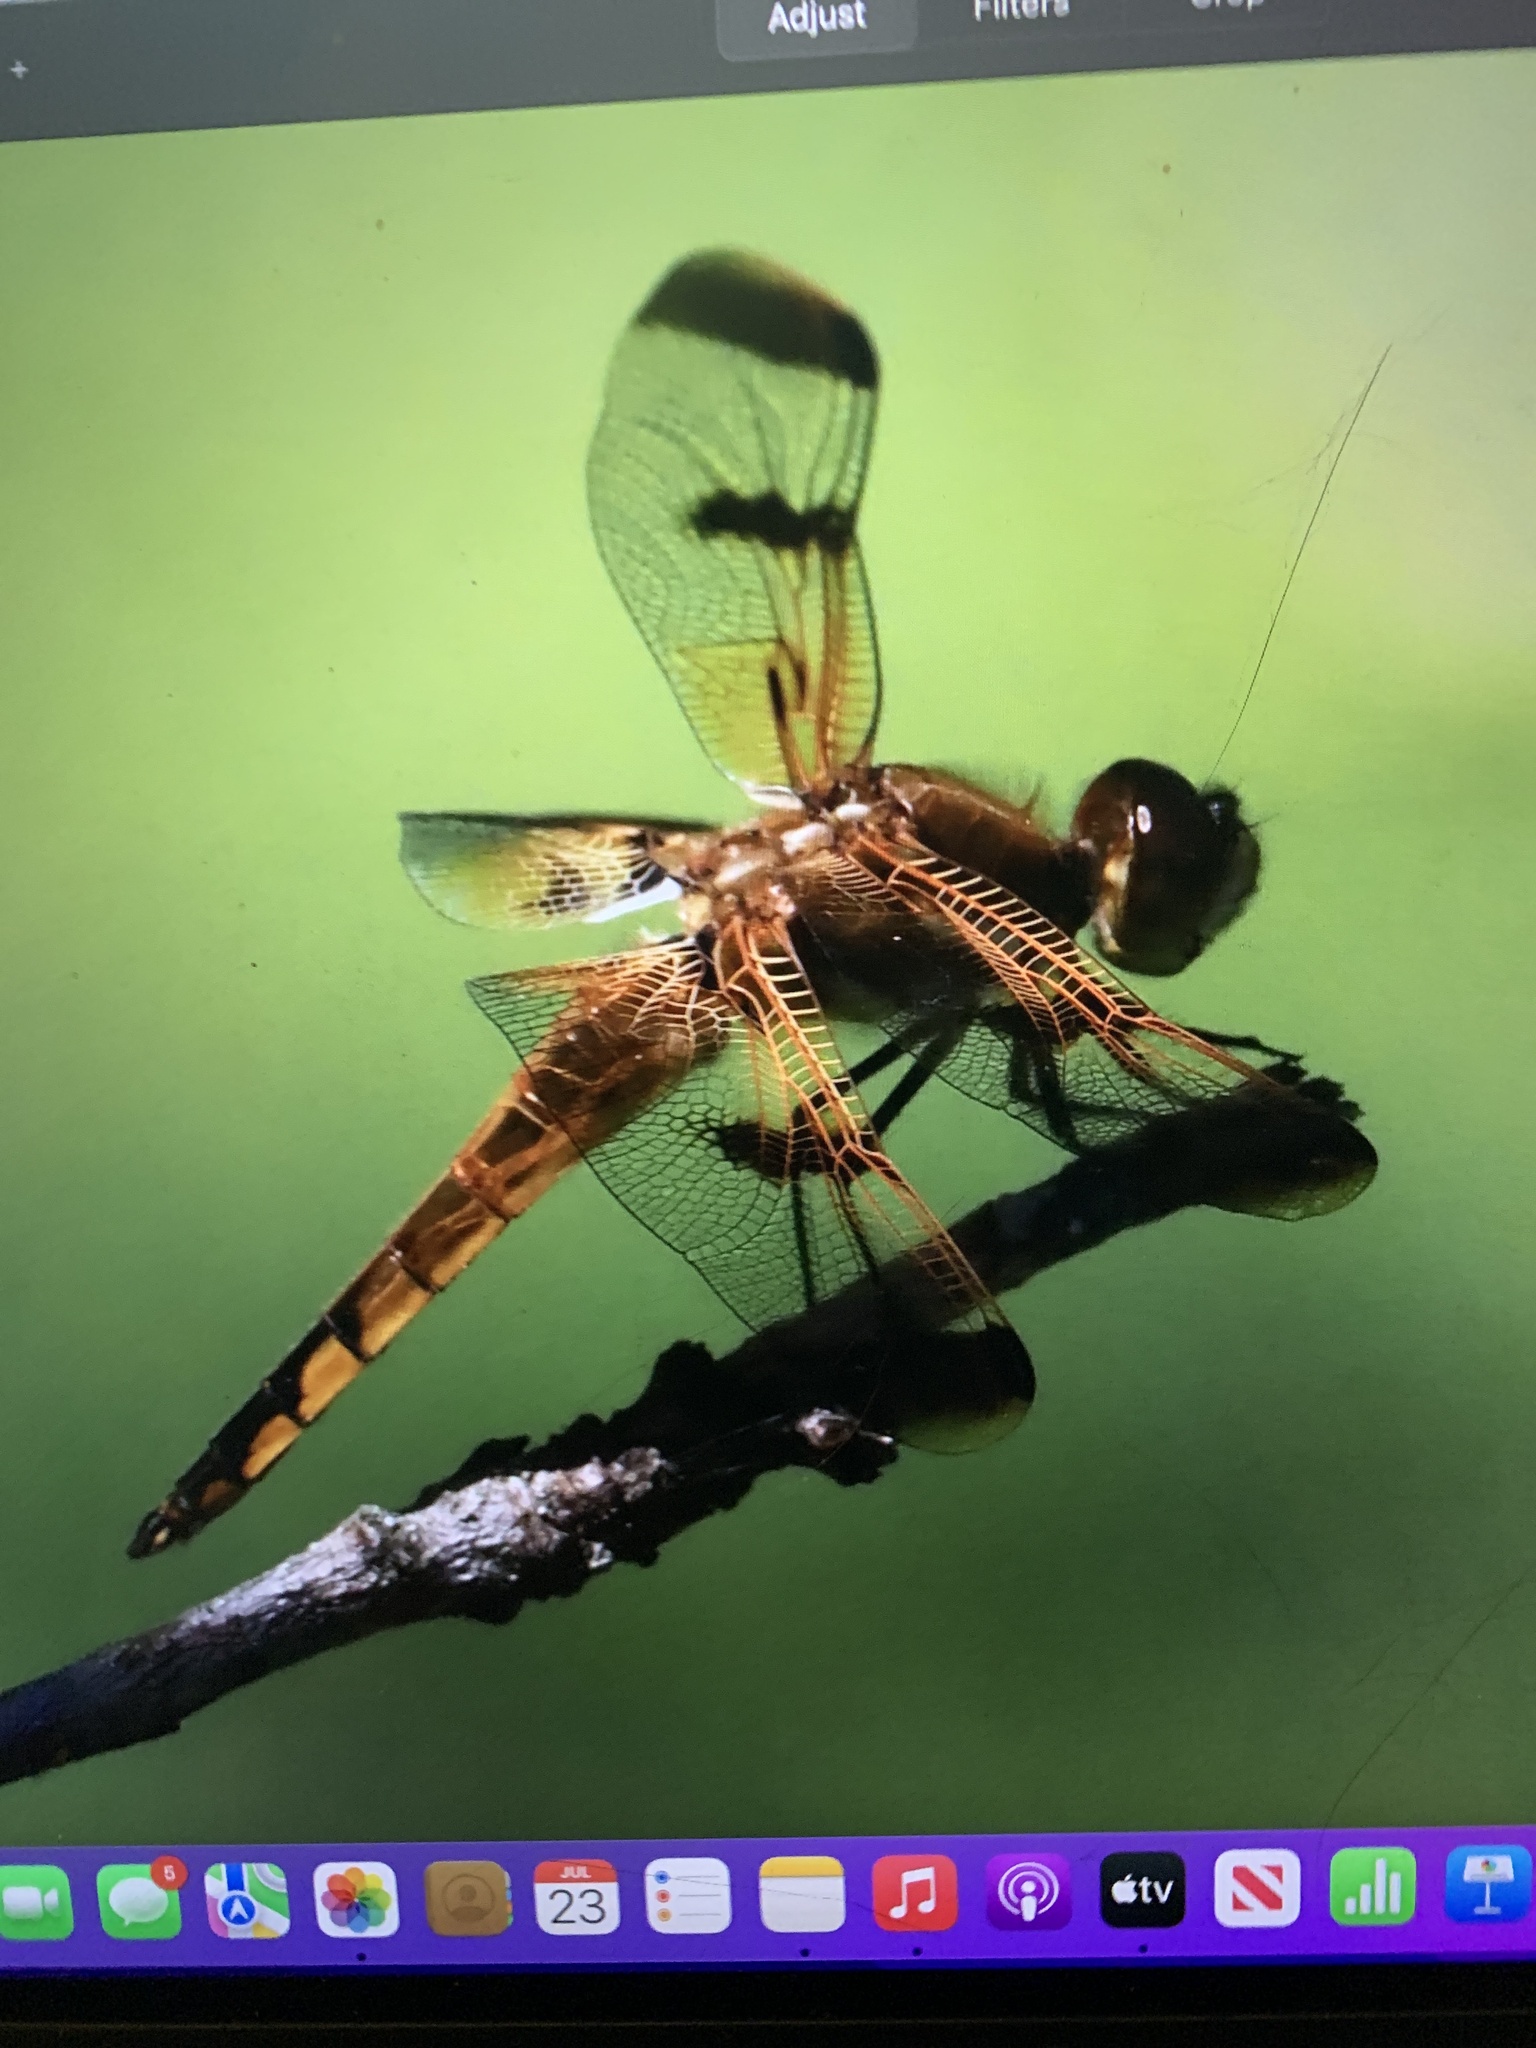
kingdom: Animalia
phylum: Arthropoda
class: Insecta
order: Odonata
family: Libellulidae
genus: Libellula
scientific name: Libellula semifasciata
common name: Painted skimmer
